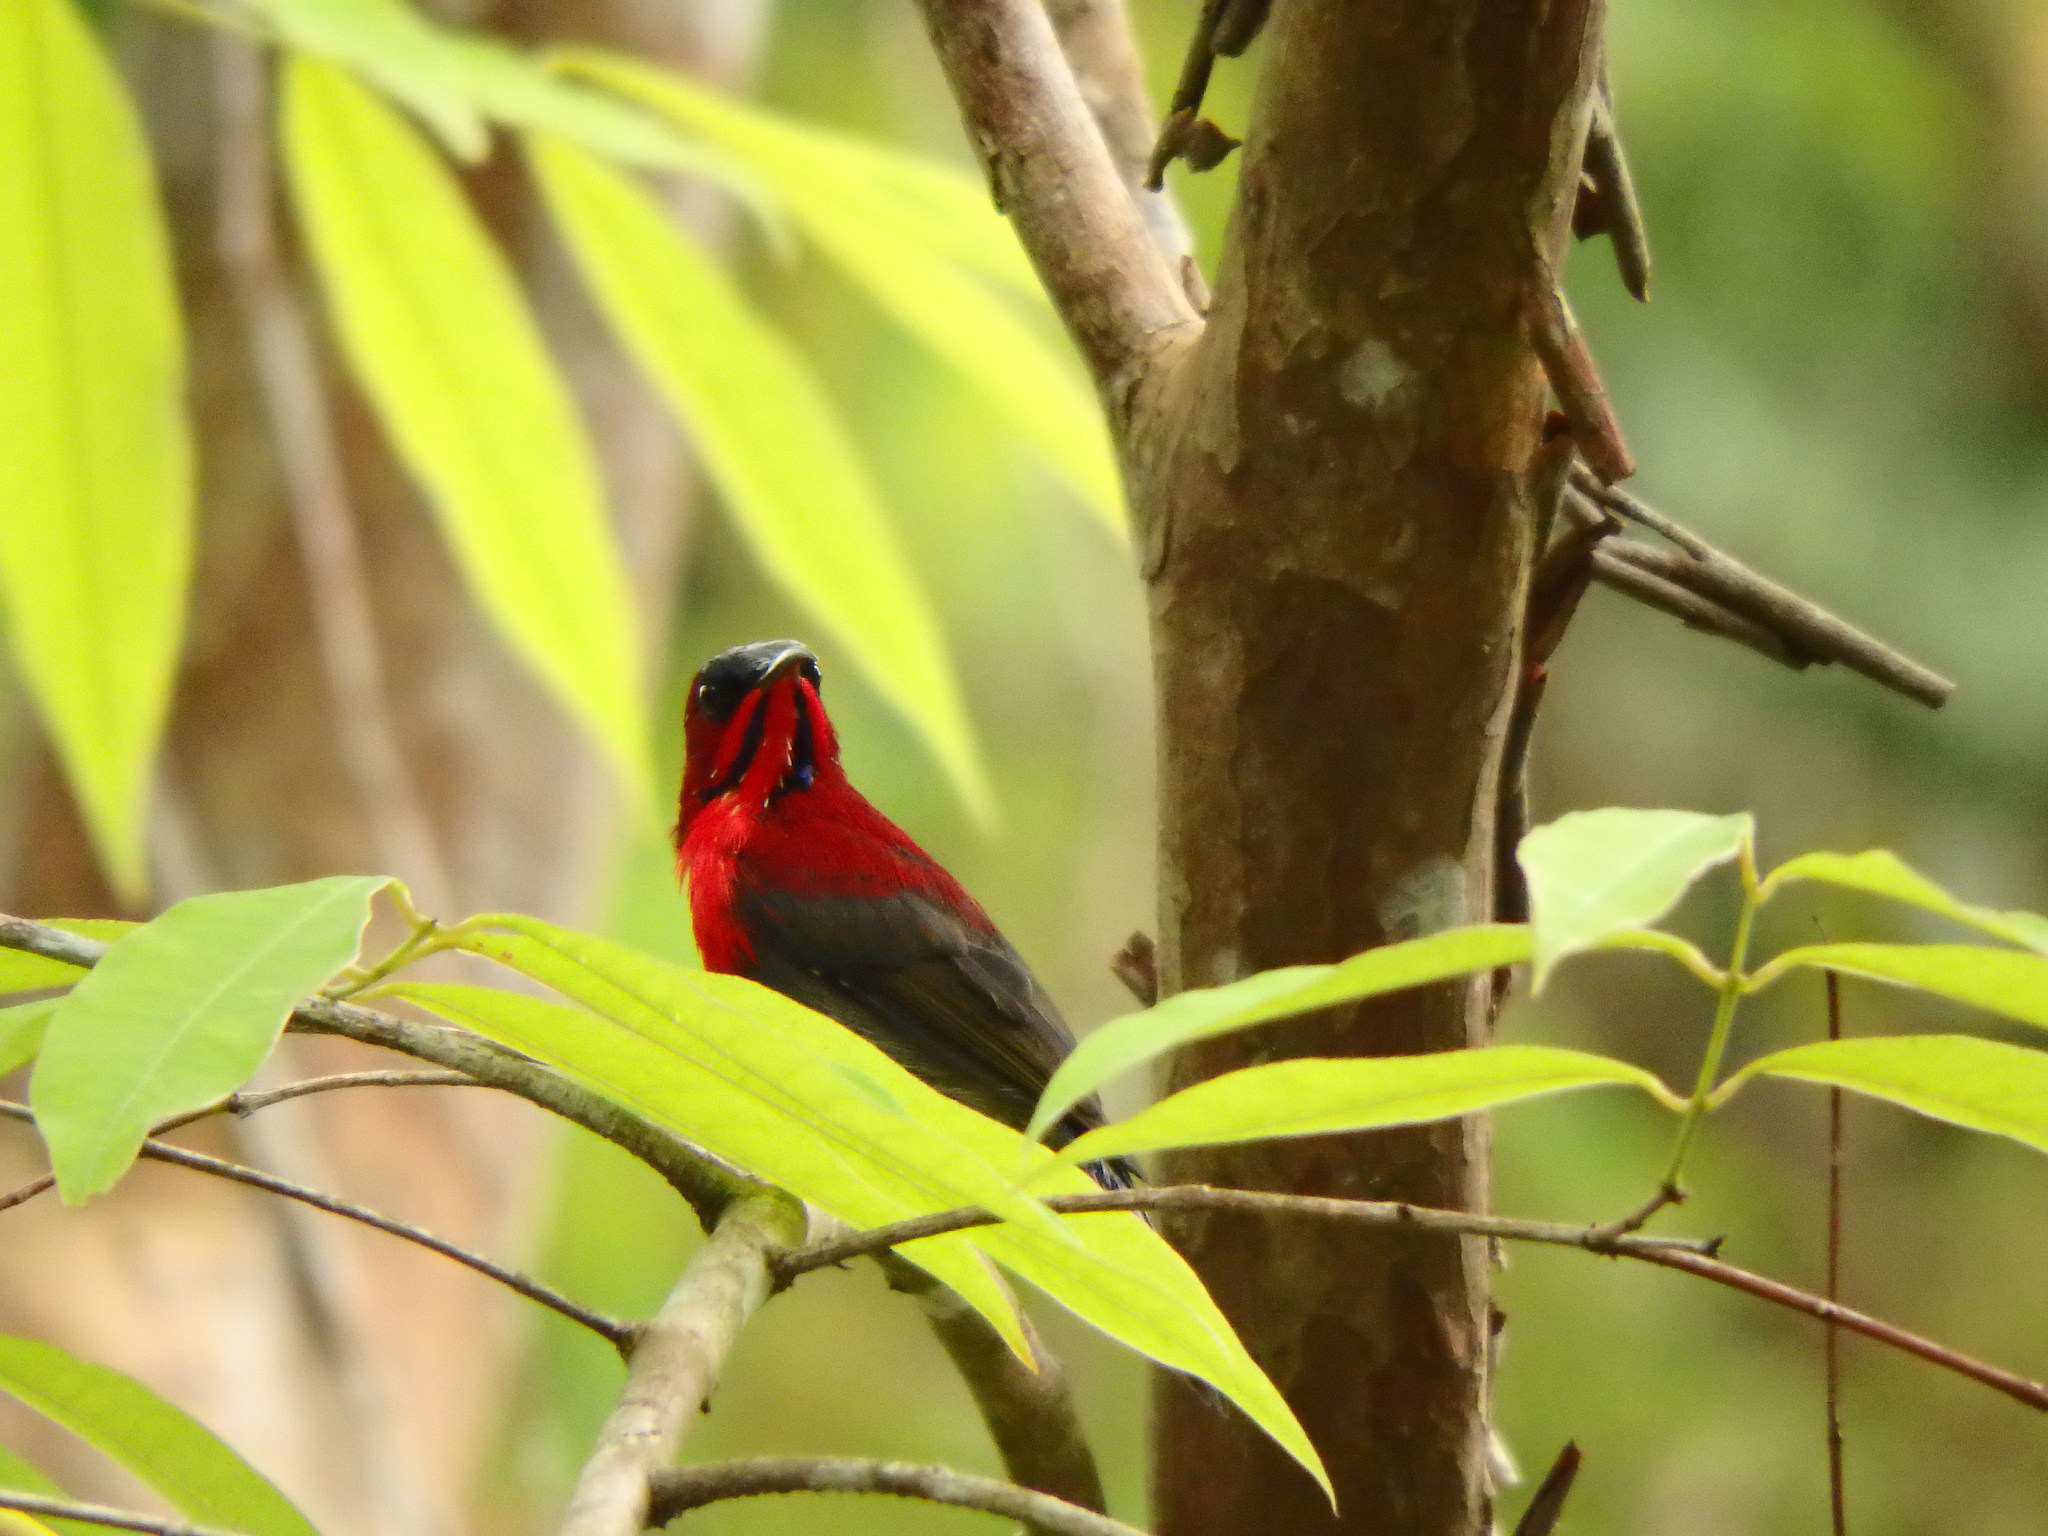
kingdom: Animalia
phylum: Chordata
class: Aves
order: Passeriformes
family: Nectariniidae
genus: Aethopyga
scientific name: Aethopyga siparaja
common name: Crimson sunbird
